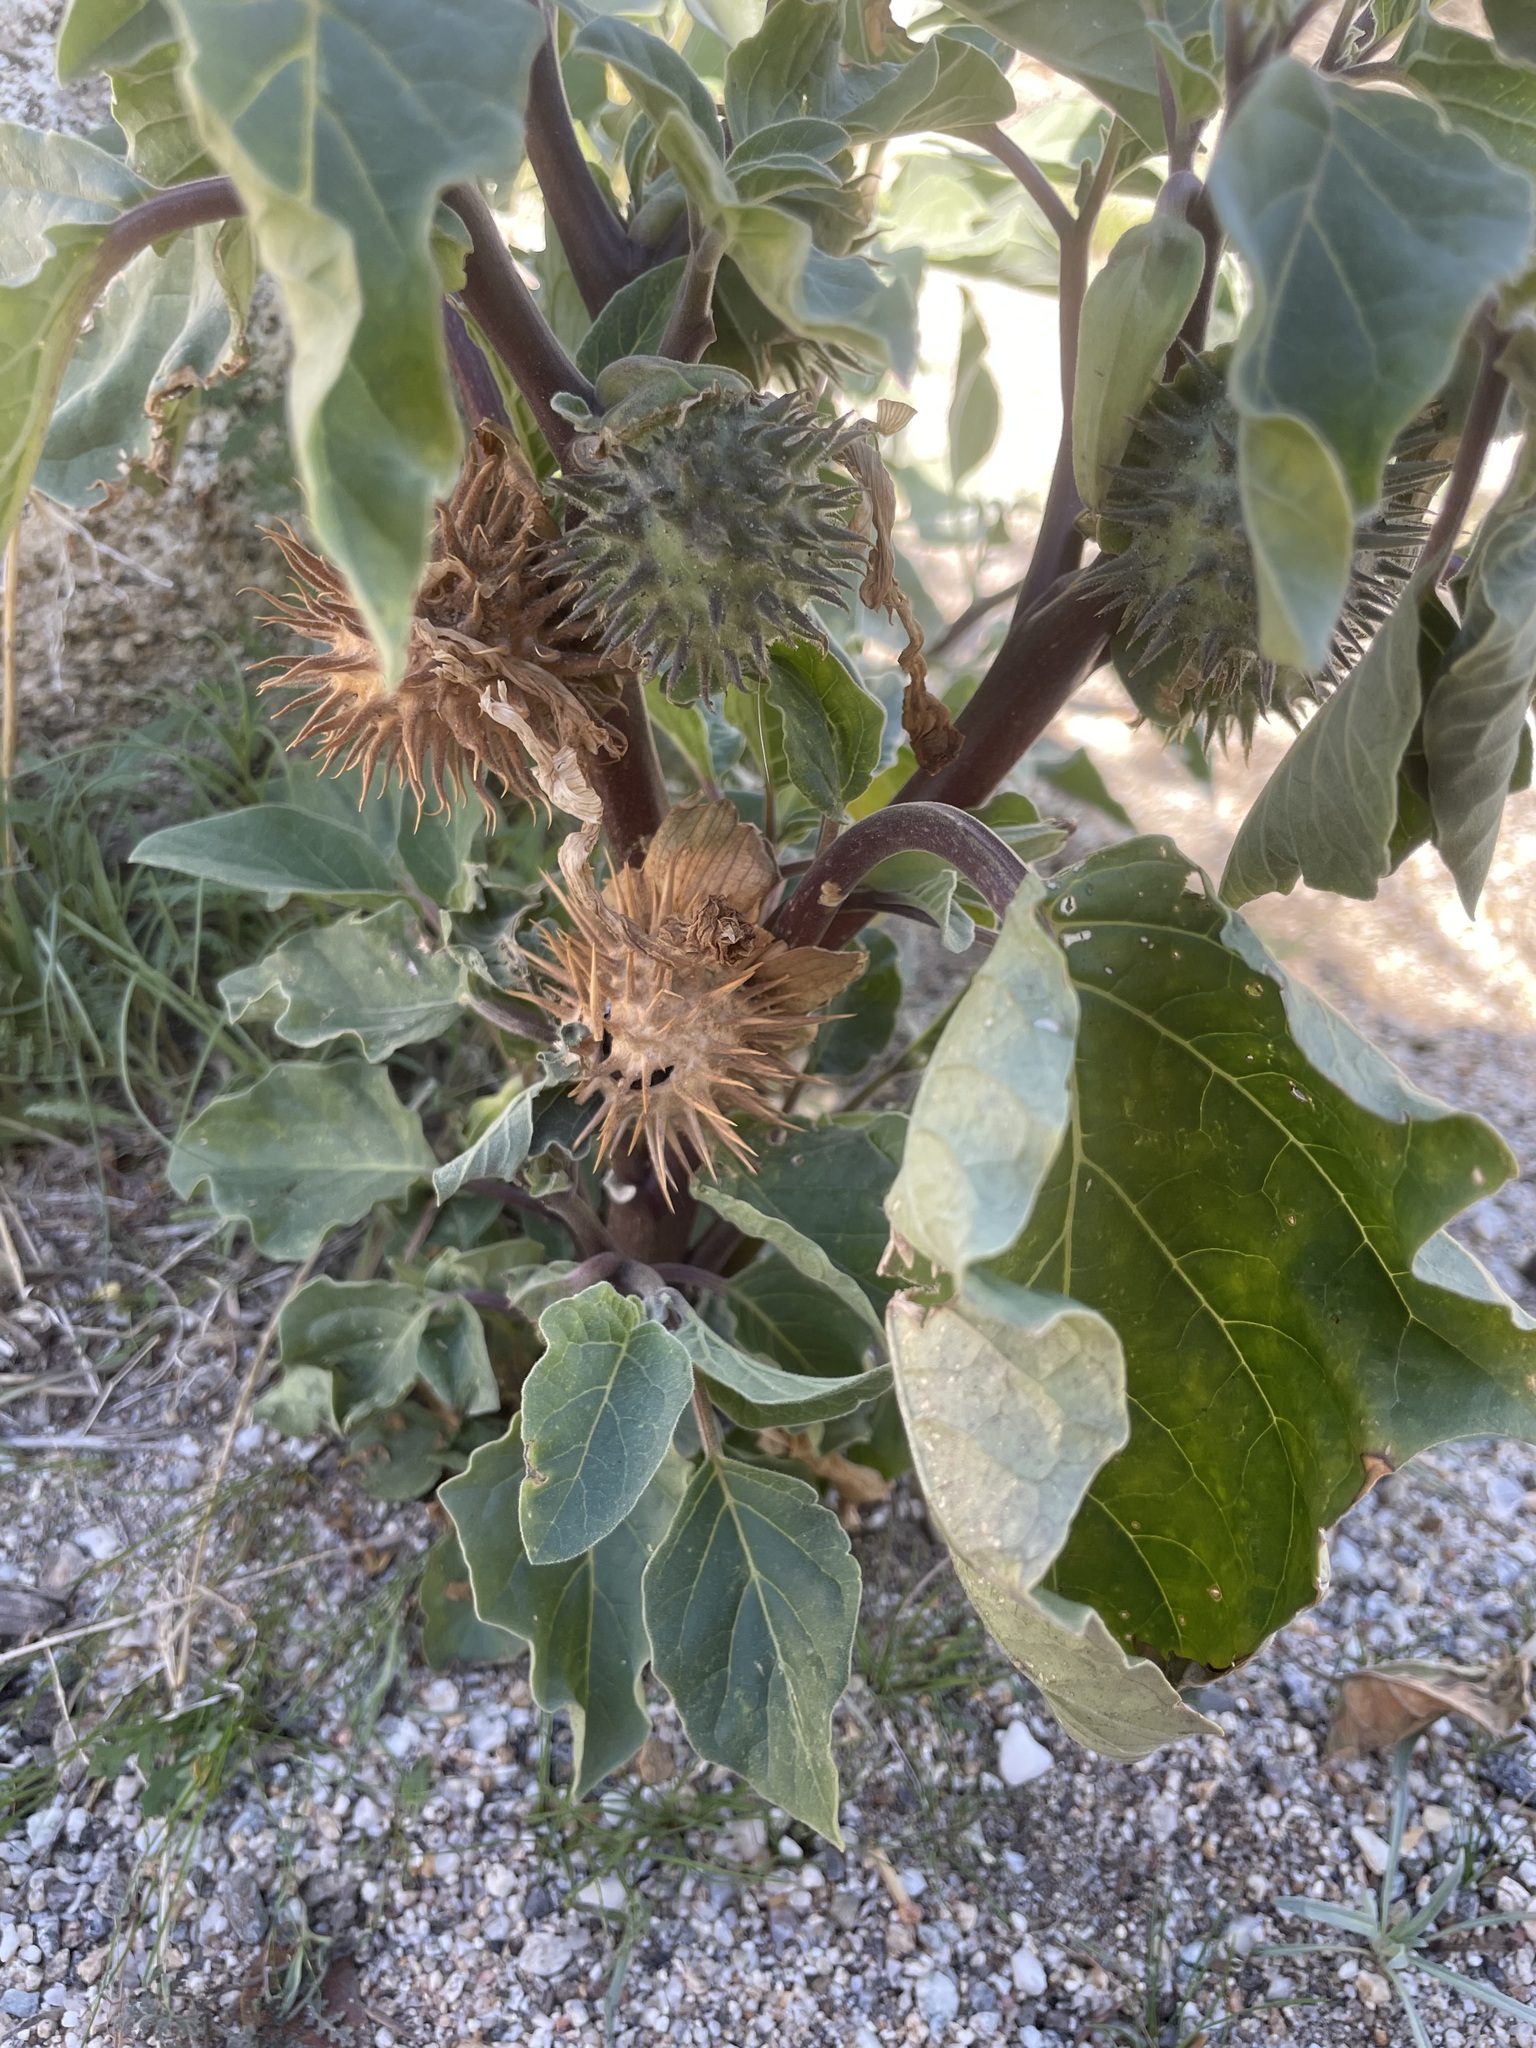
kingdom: Plantae
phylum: Tracheophyta
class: Magnoliopsida
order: Solanales
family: Solanaceae
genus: Datura
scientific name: Datura discolor
